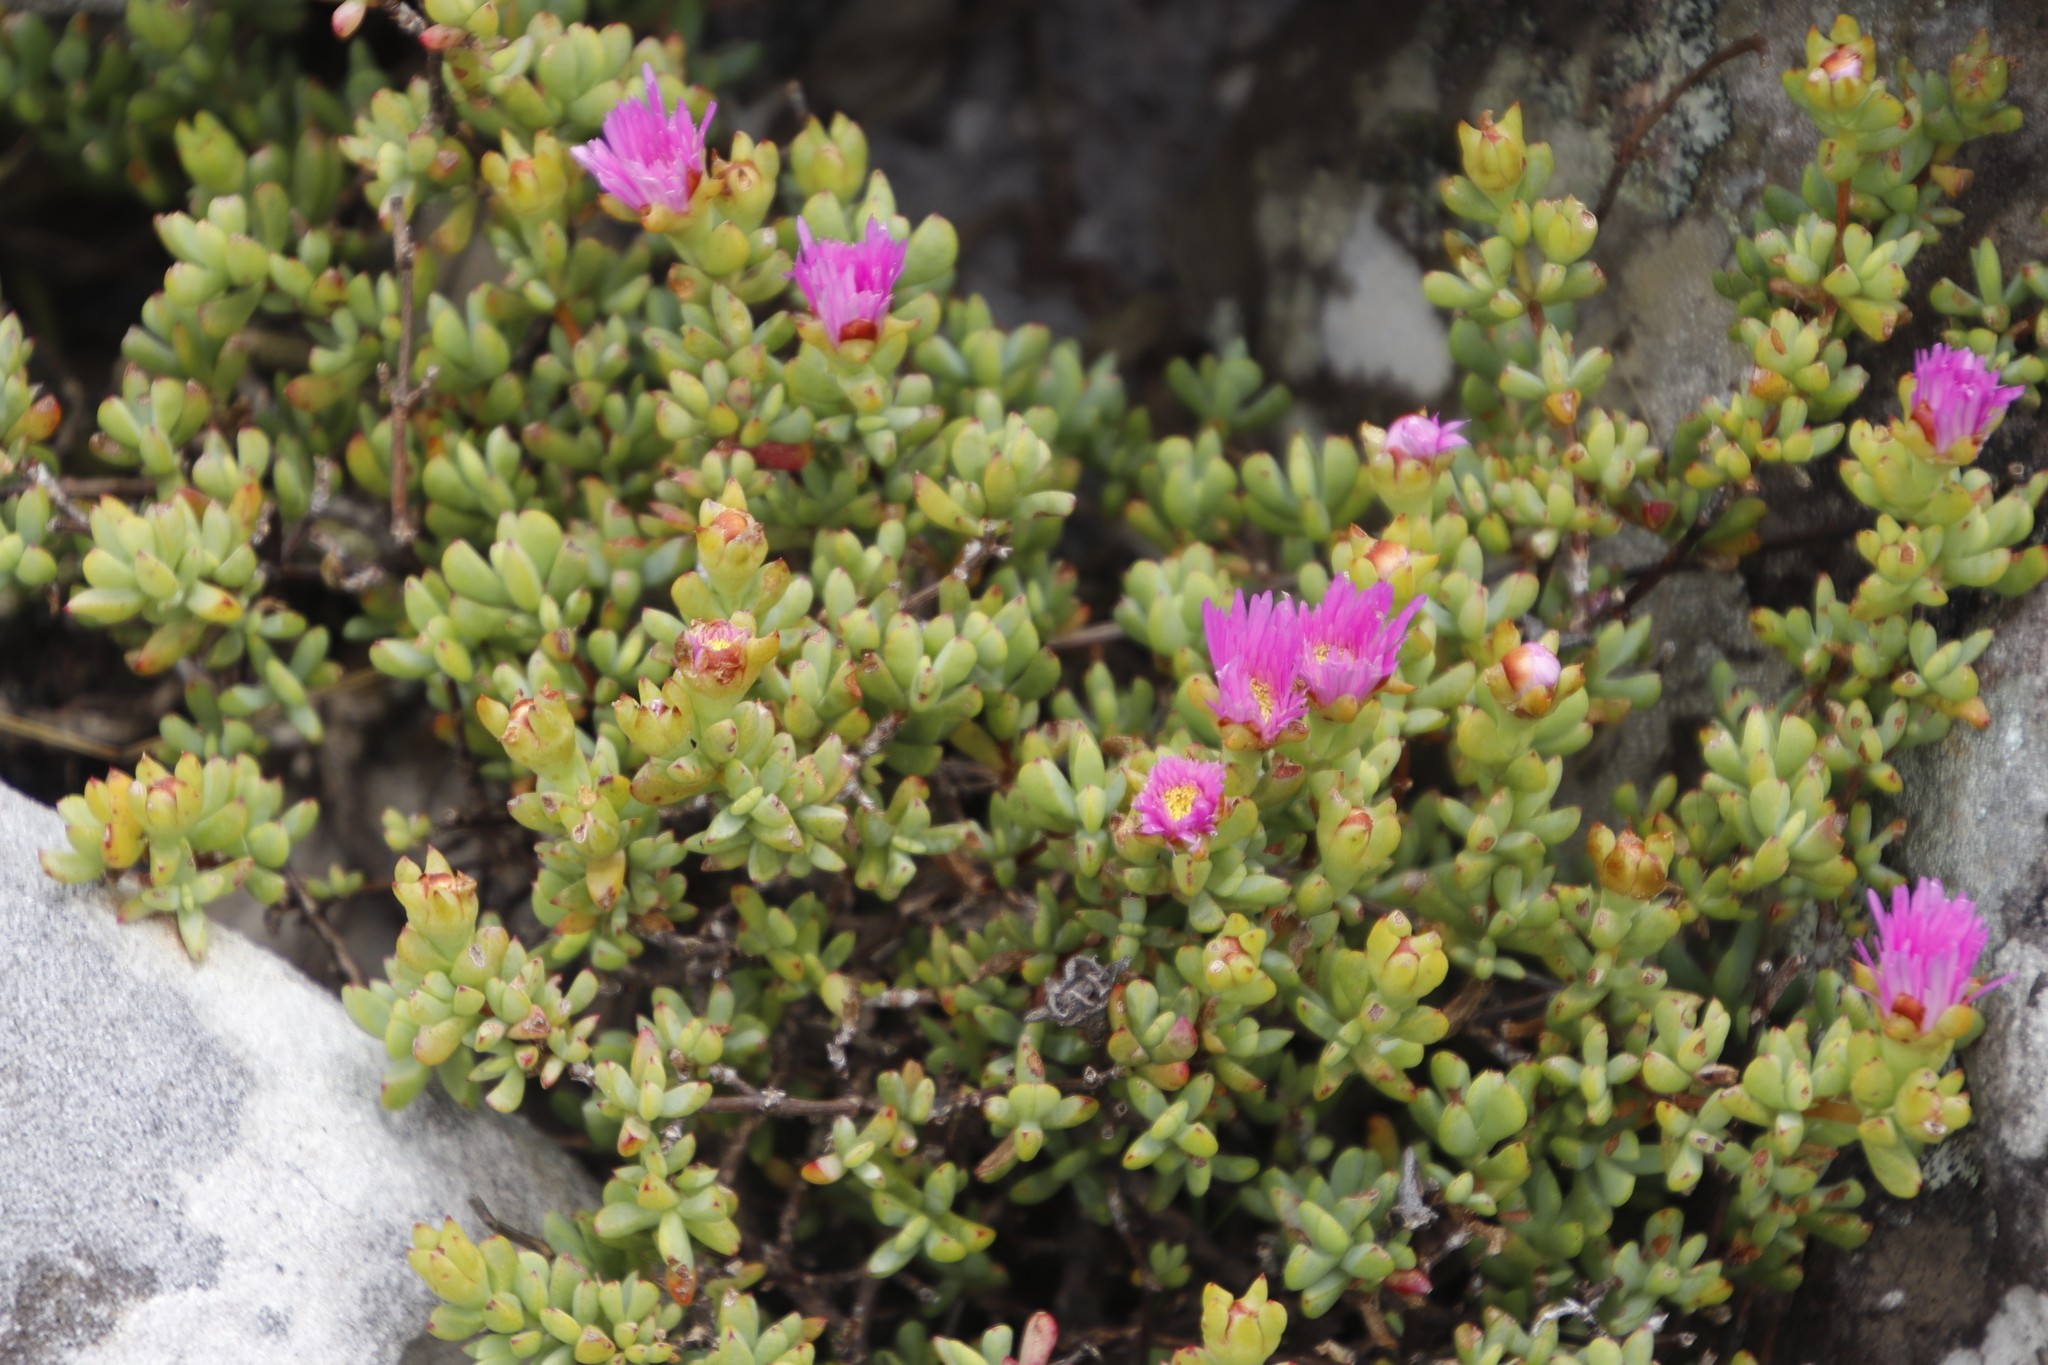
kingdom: Plantae
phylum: Tracheophyta
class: Magnoliopsida
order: Caryophyllales
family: Aizoaceae
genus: Oscularia
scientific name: Oscularia falciformis
